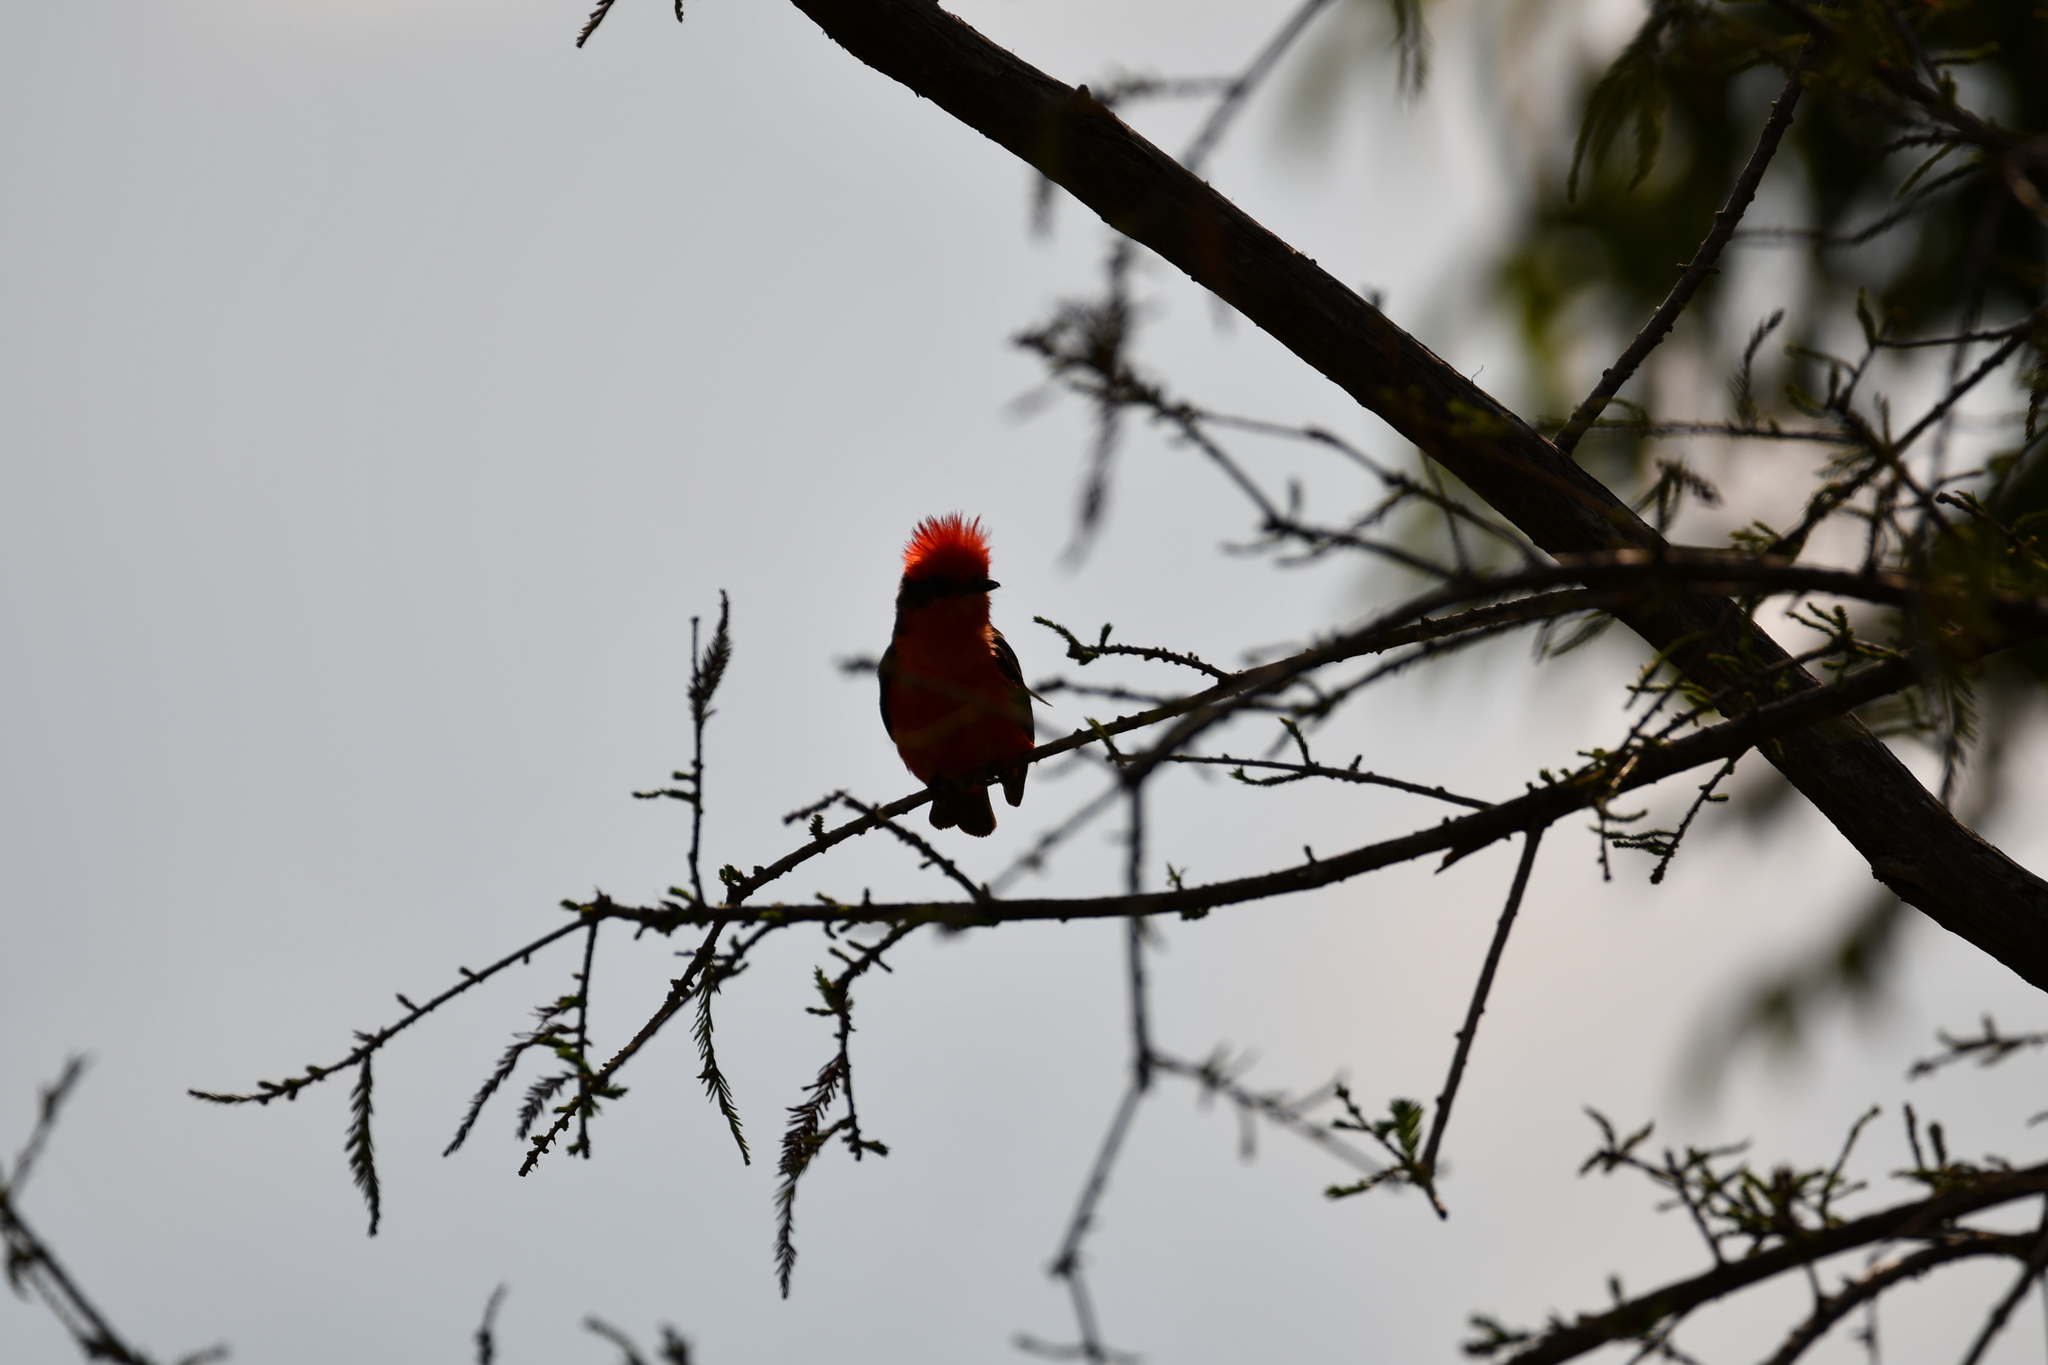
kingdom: Animalia
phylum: Chordata
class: Aves
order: Passeriformes
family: Tyrannidae
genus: Pyrocephalus
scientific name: Pyrocephalus rubinus
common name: Vermilion flycatcher
